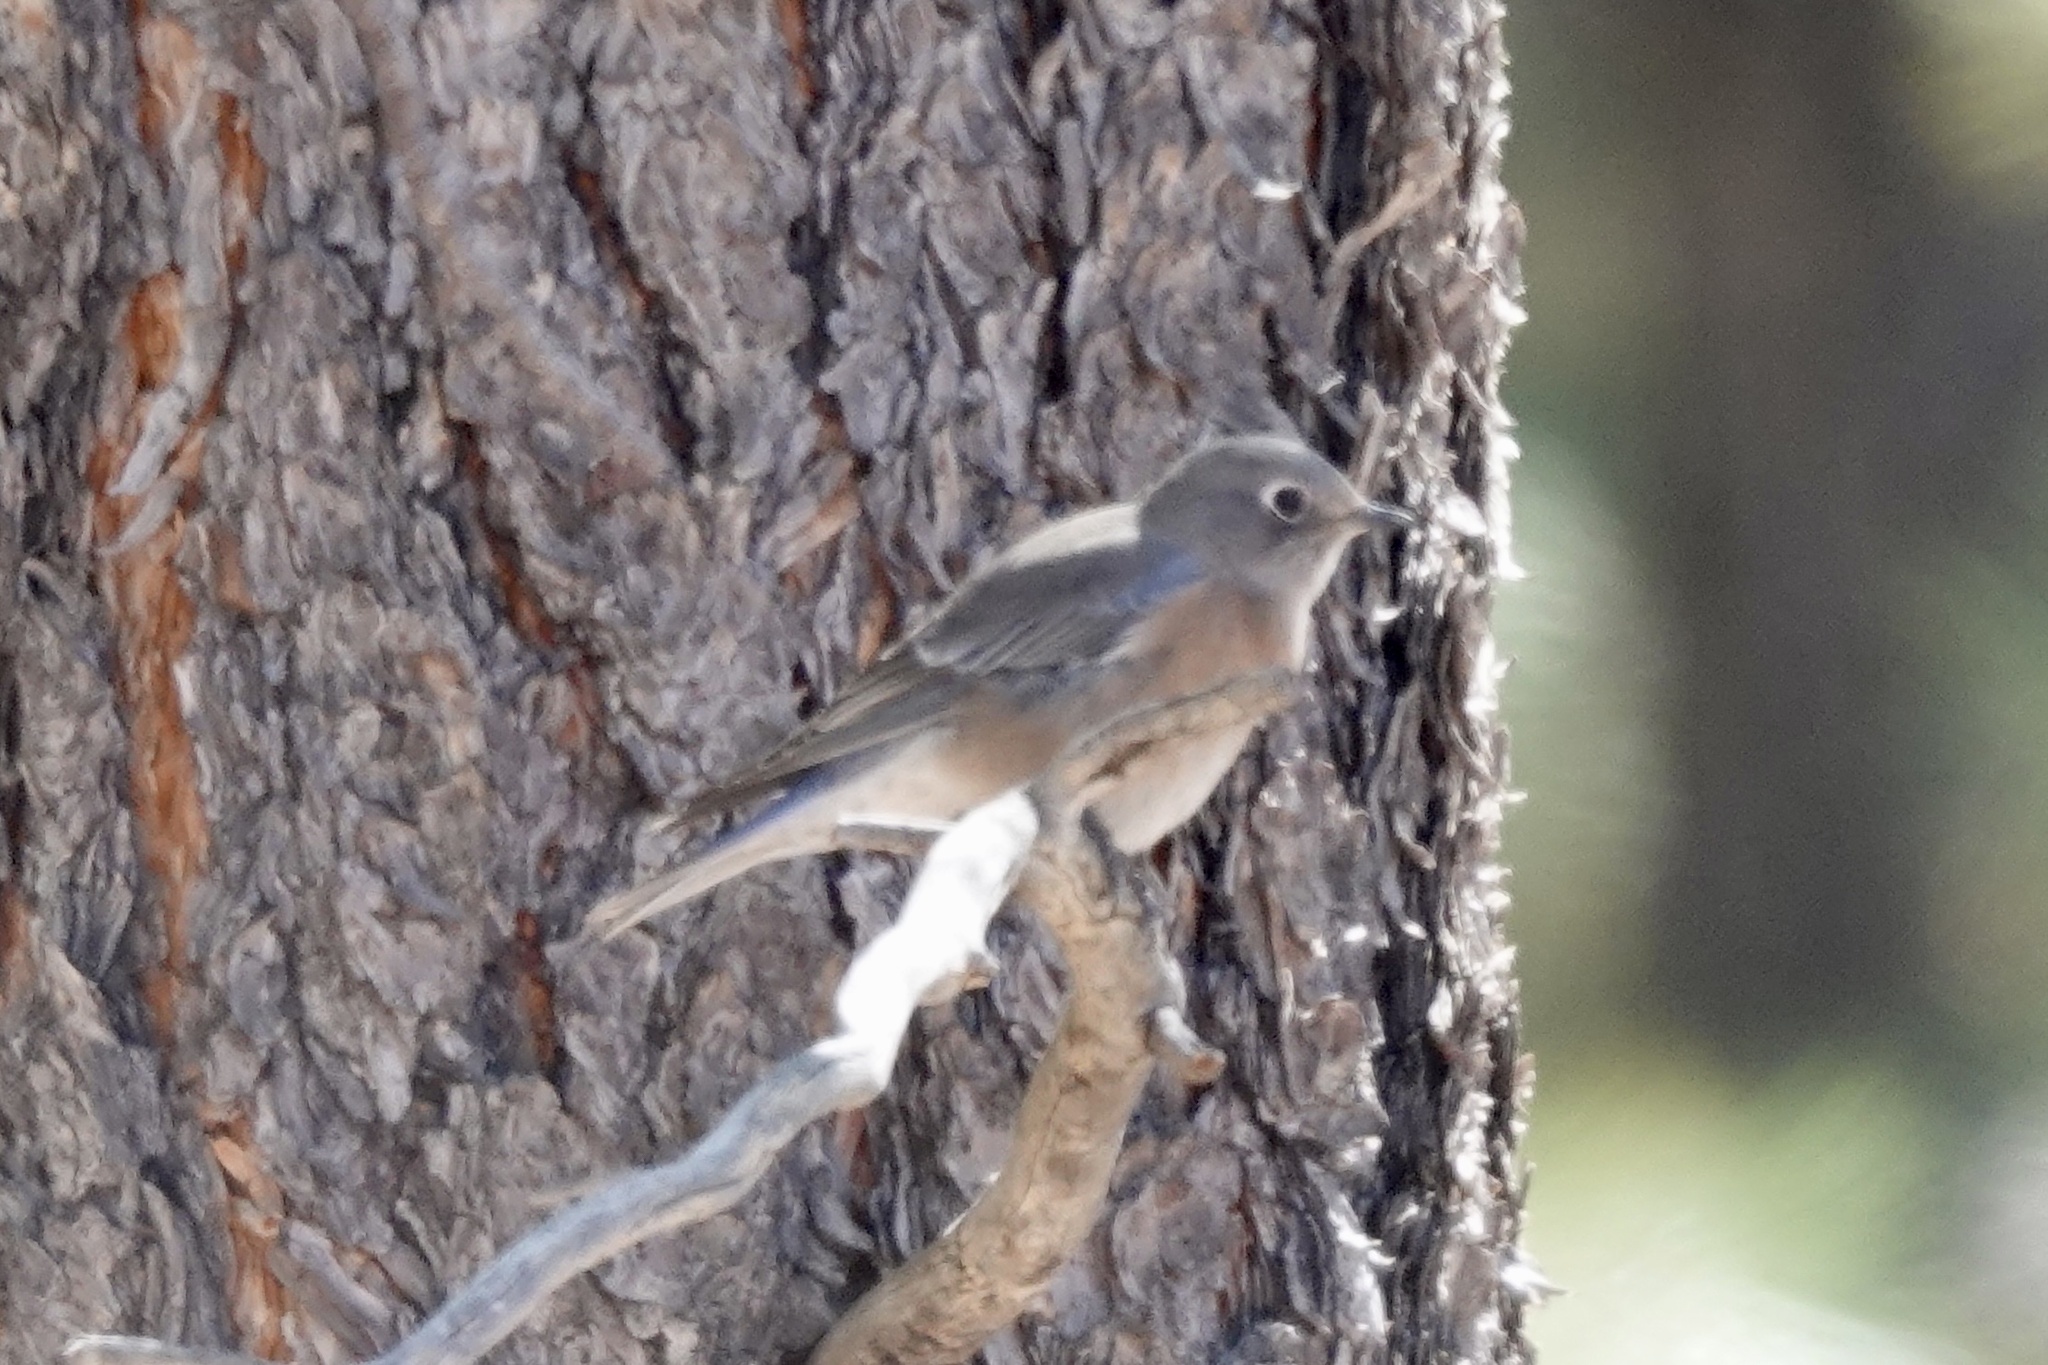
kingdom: Animalia
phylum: Chordata
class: Aves
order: Passeriformes
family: Turdidae
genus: Sialia
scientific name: Sialia mexicana
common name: Western bluebird
